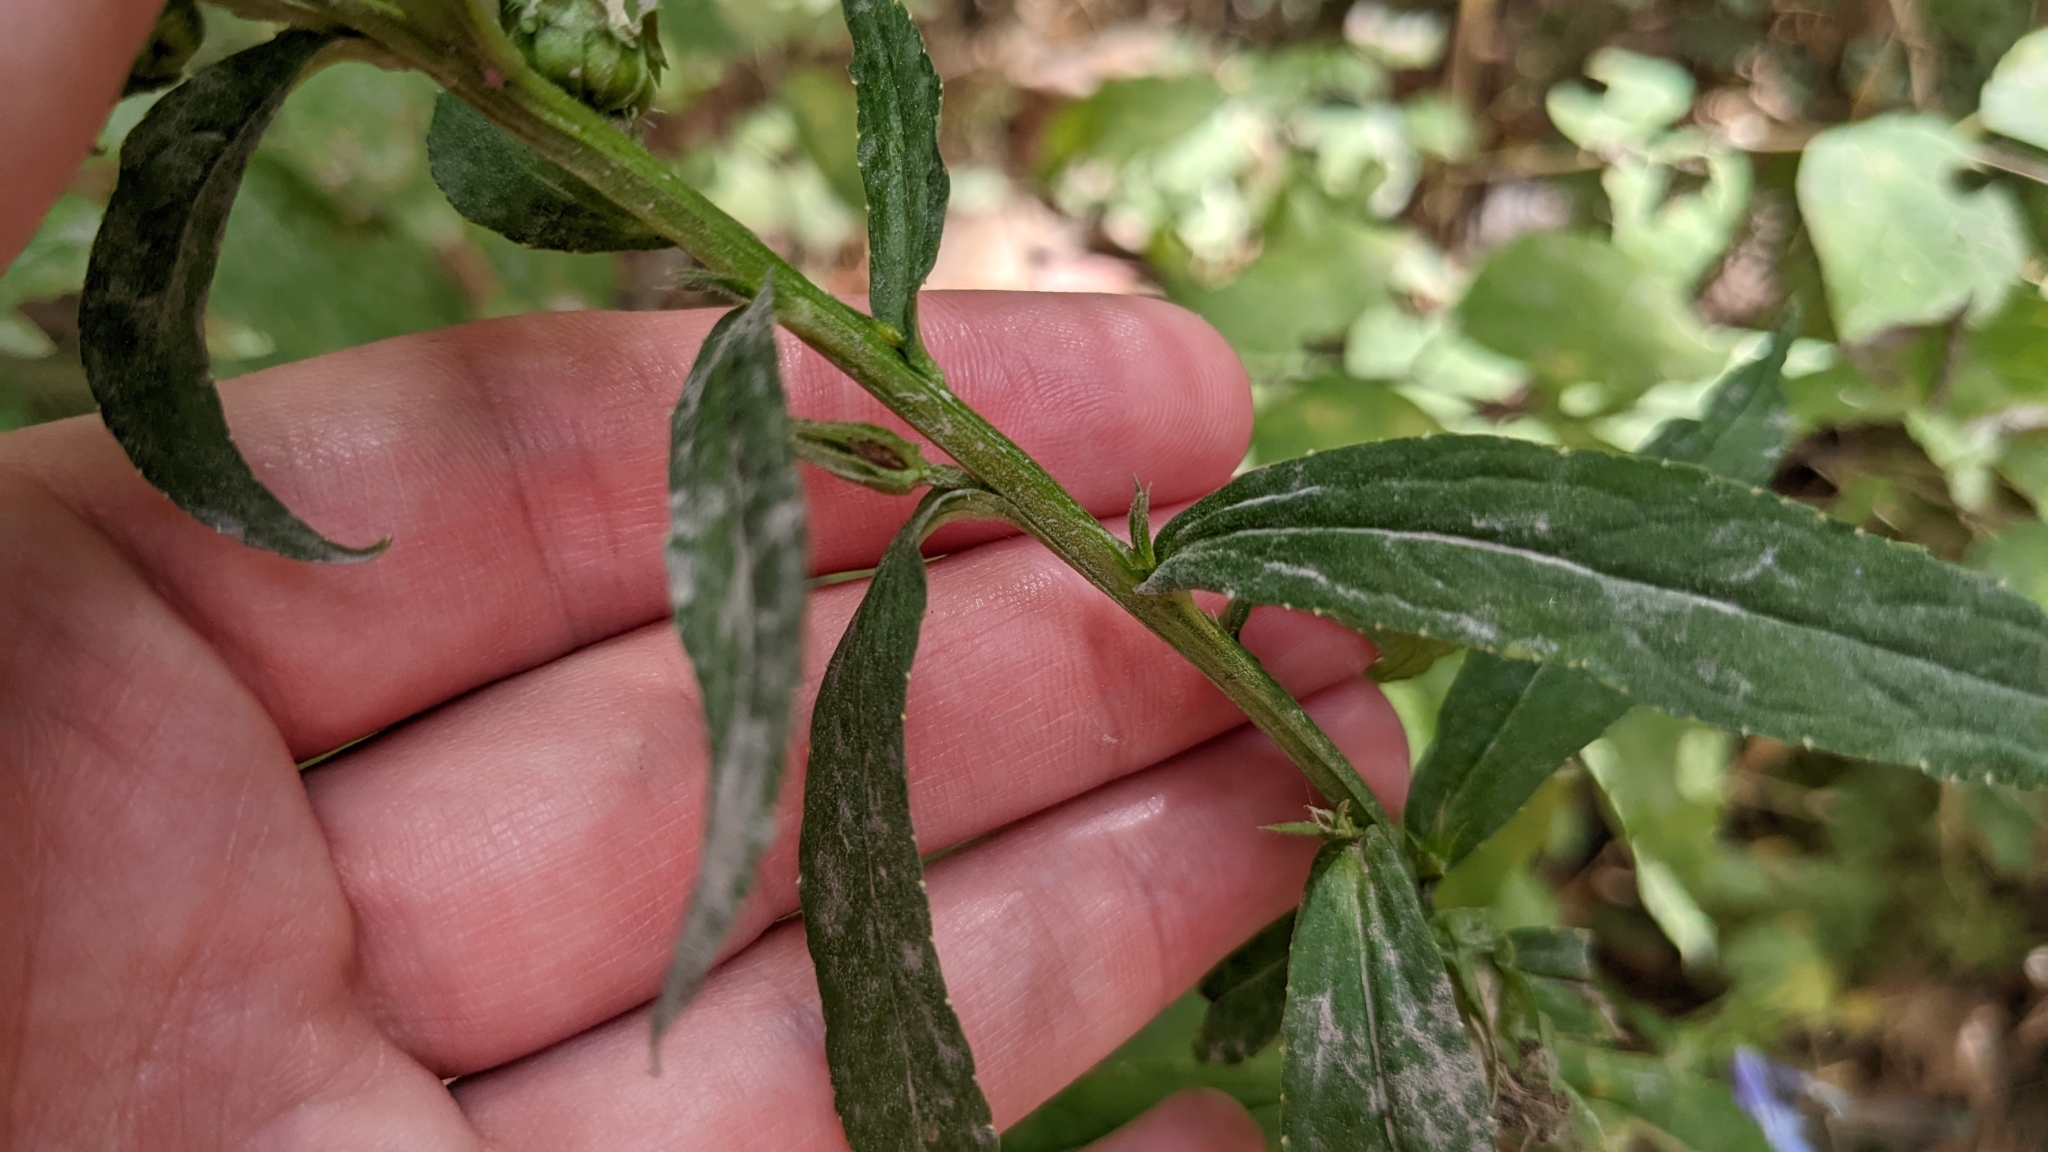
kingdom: Plantae
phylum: Tracheophyta
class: Magnoliopsida
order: Asterales
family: Campanulaceae
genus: Lobelia
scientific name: Lobelia siphilitica
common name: Great lobelia
